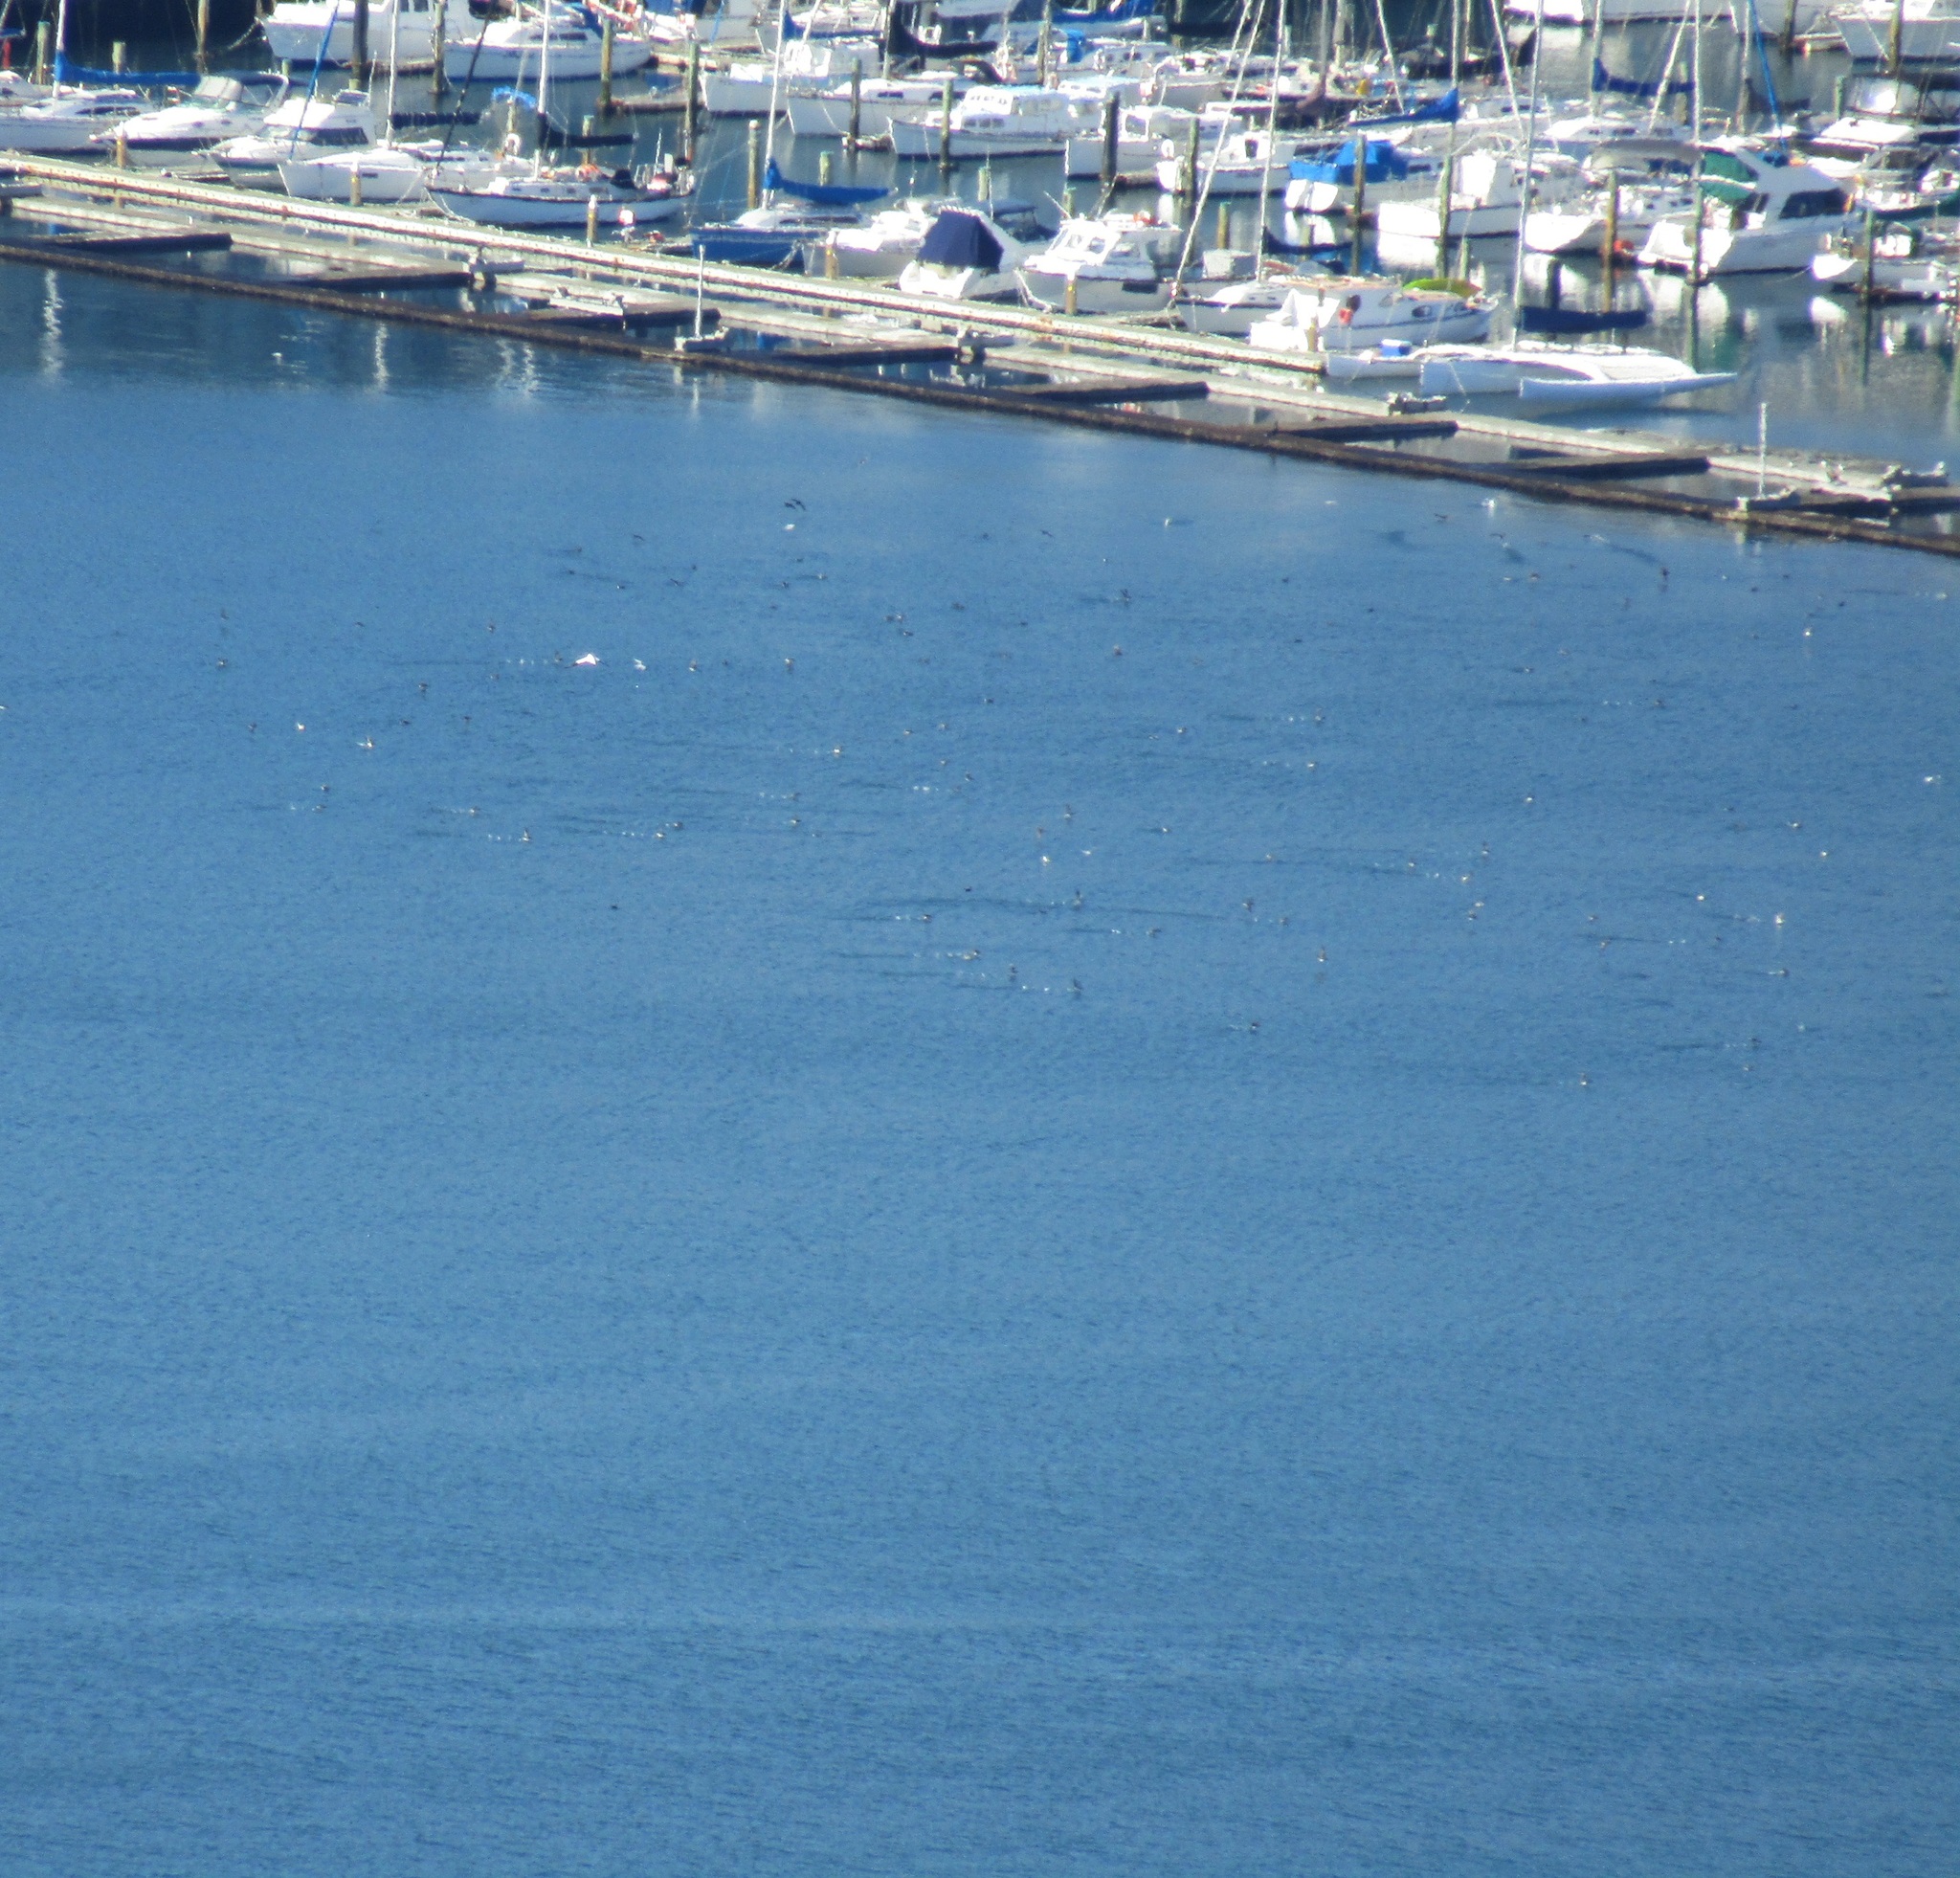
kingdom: Animalia
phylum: Chordata
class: Aves
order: Procellariiformes
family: Procellariidae
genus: Puffinus
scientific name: Puffinus gavia
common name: Fluttering shearwater
